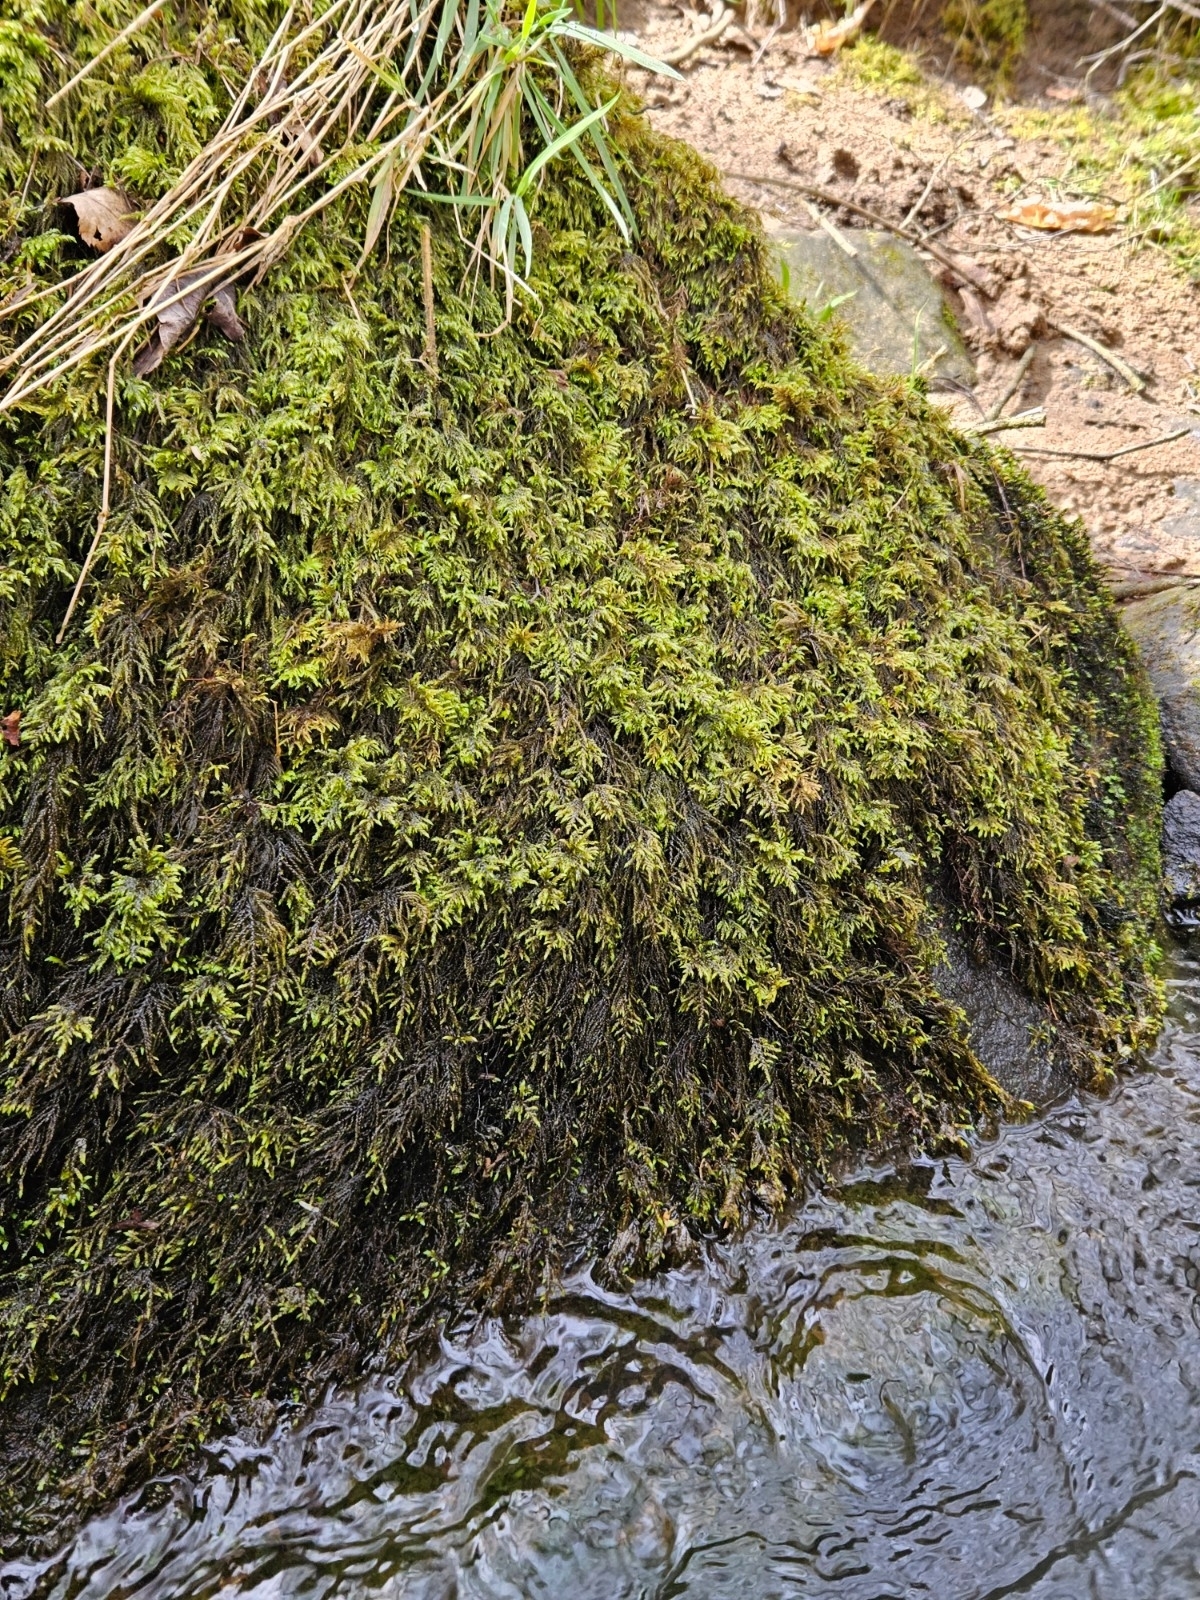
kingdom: Plantae
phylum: Bryophyta
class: Bryopsida
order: Hypnales
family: Lembophyllaceae
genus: Pseudisothecium
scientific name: Pseudisothecium holtii
